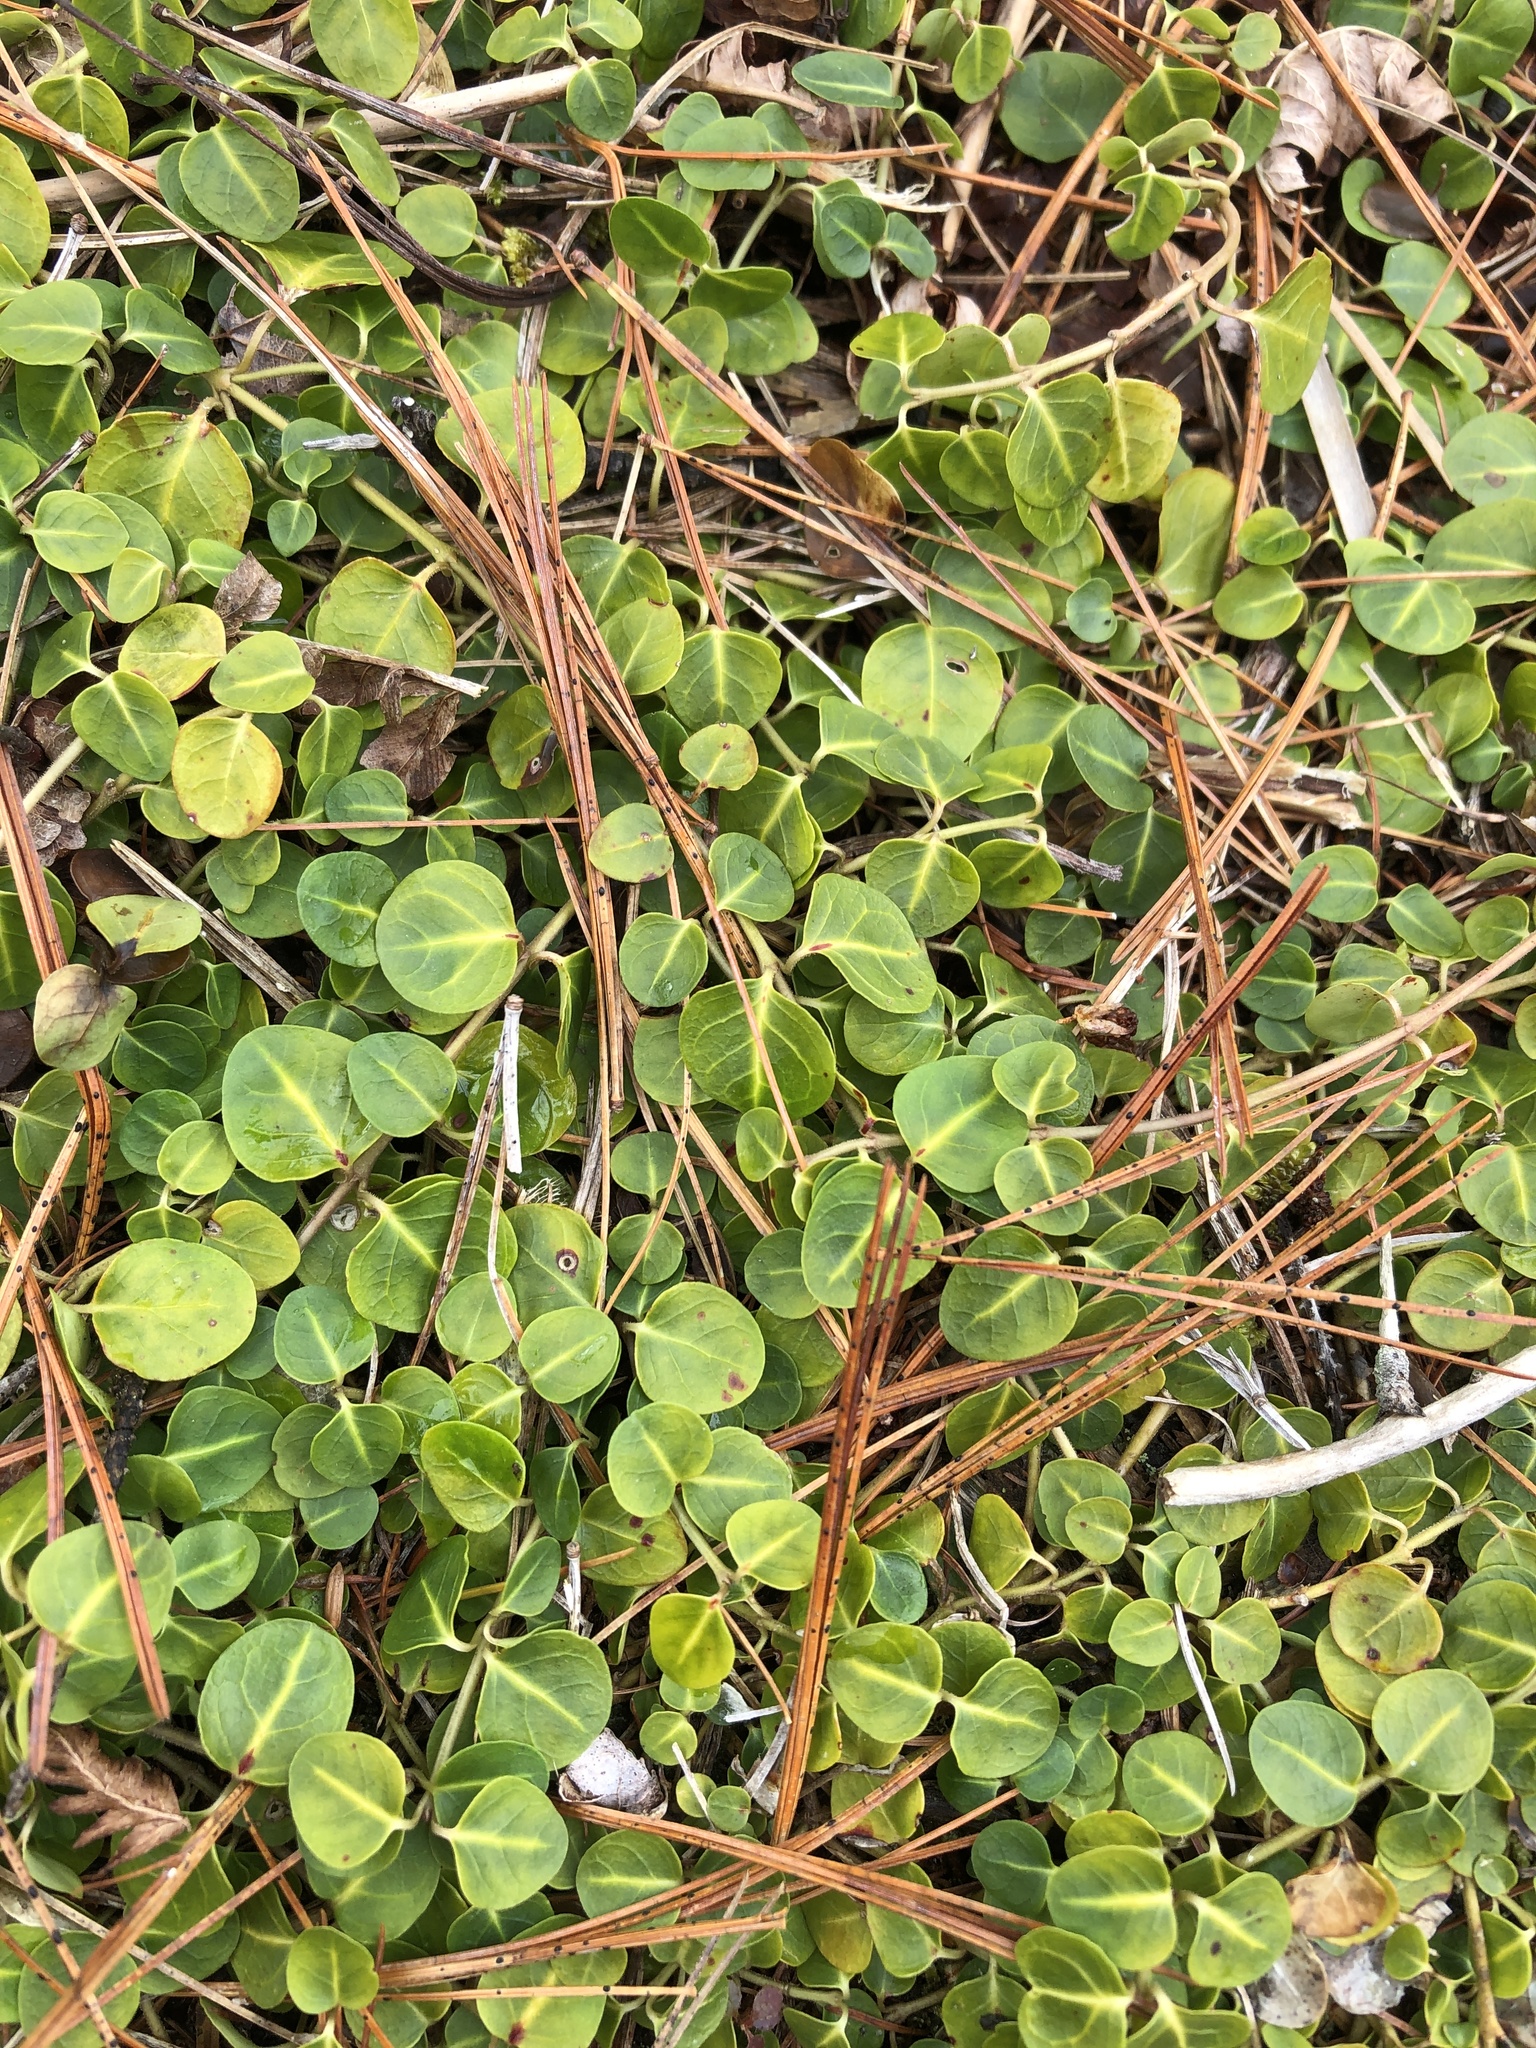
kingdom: Plantae
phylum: Tracheophyta
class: Magnoliopsida
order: Gentianales
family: Rubiaceae
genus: Mitchella
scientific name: Mitchella repens
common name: Partridge-berry
